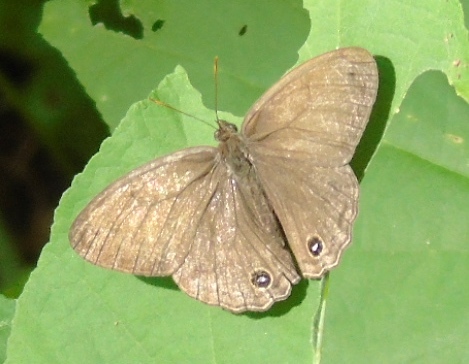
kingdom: Animalia
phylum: Arthropoda
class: Insecta
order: Lepidoptera
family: Nymphalidae
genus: Vareuptychia
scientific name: Vareuptychia similis
